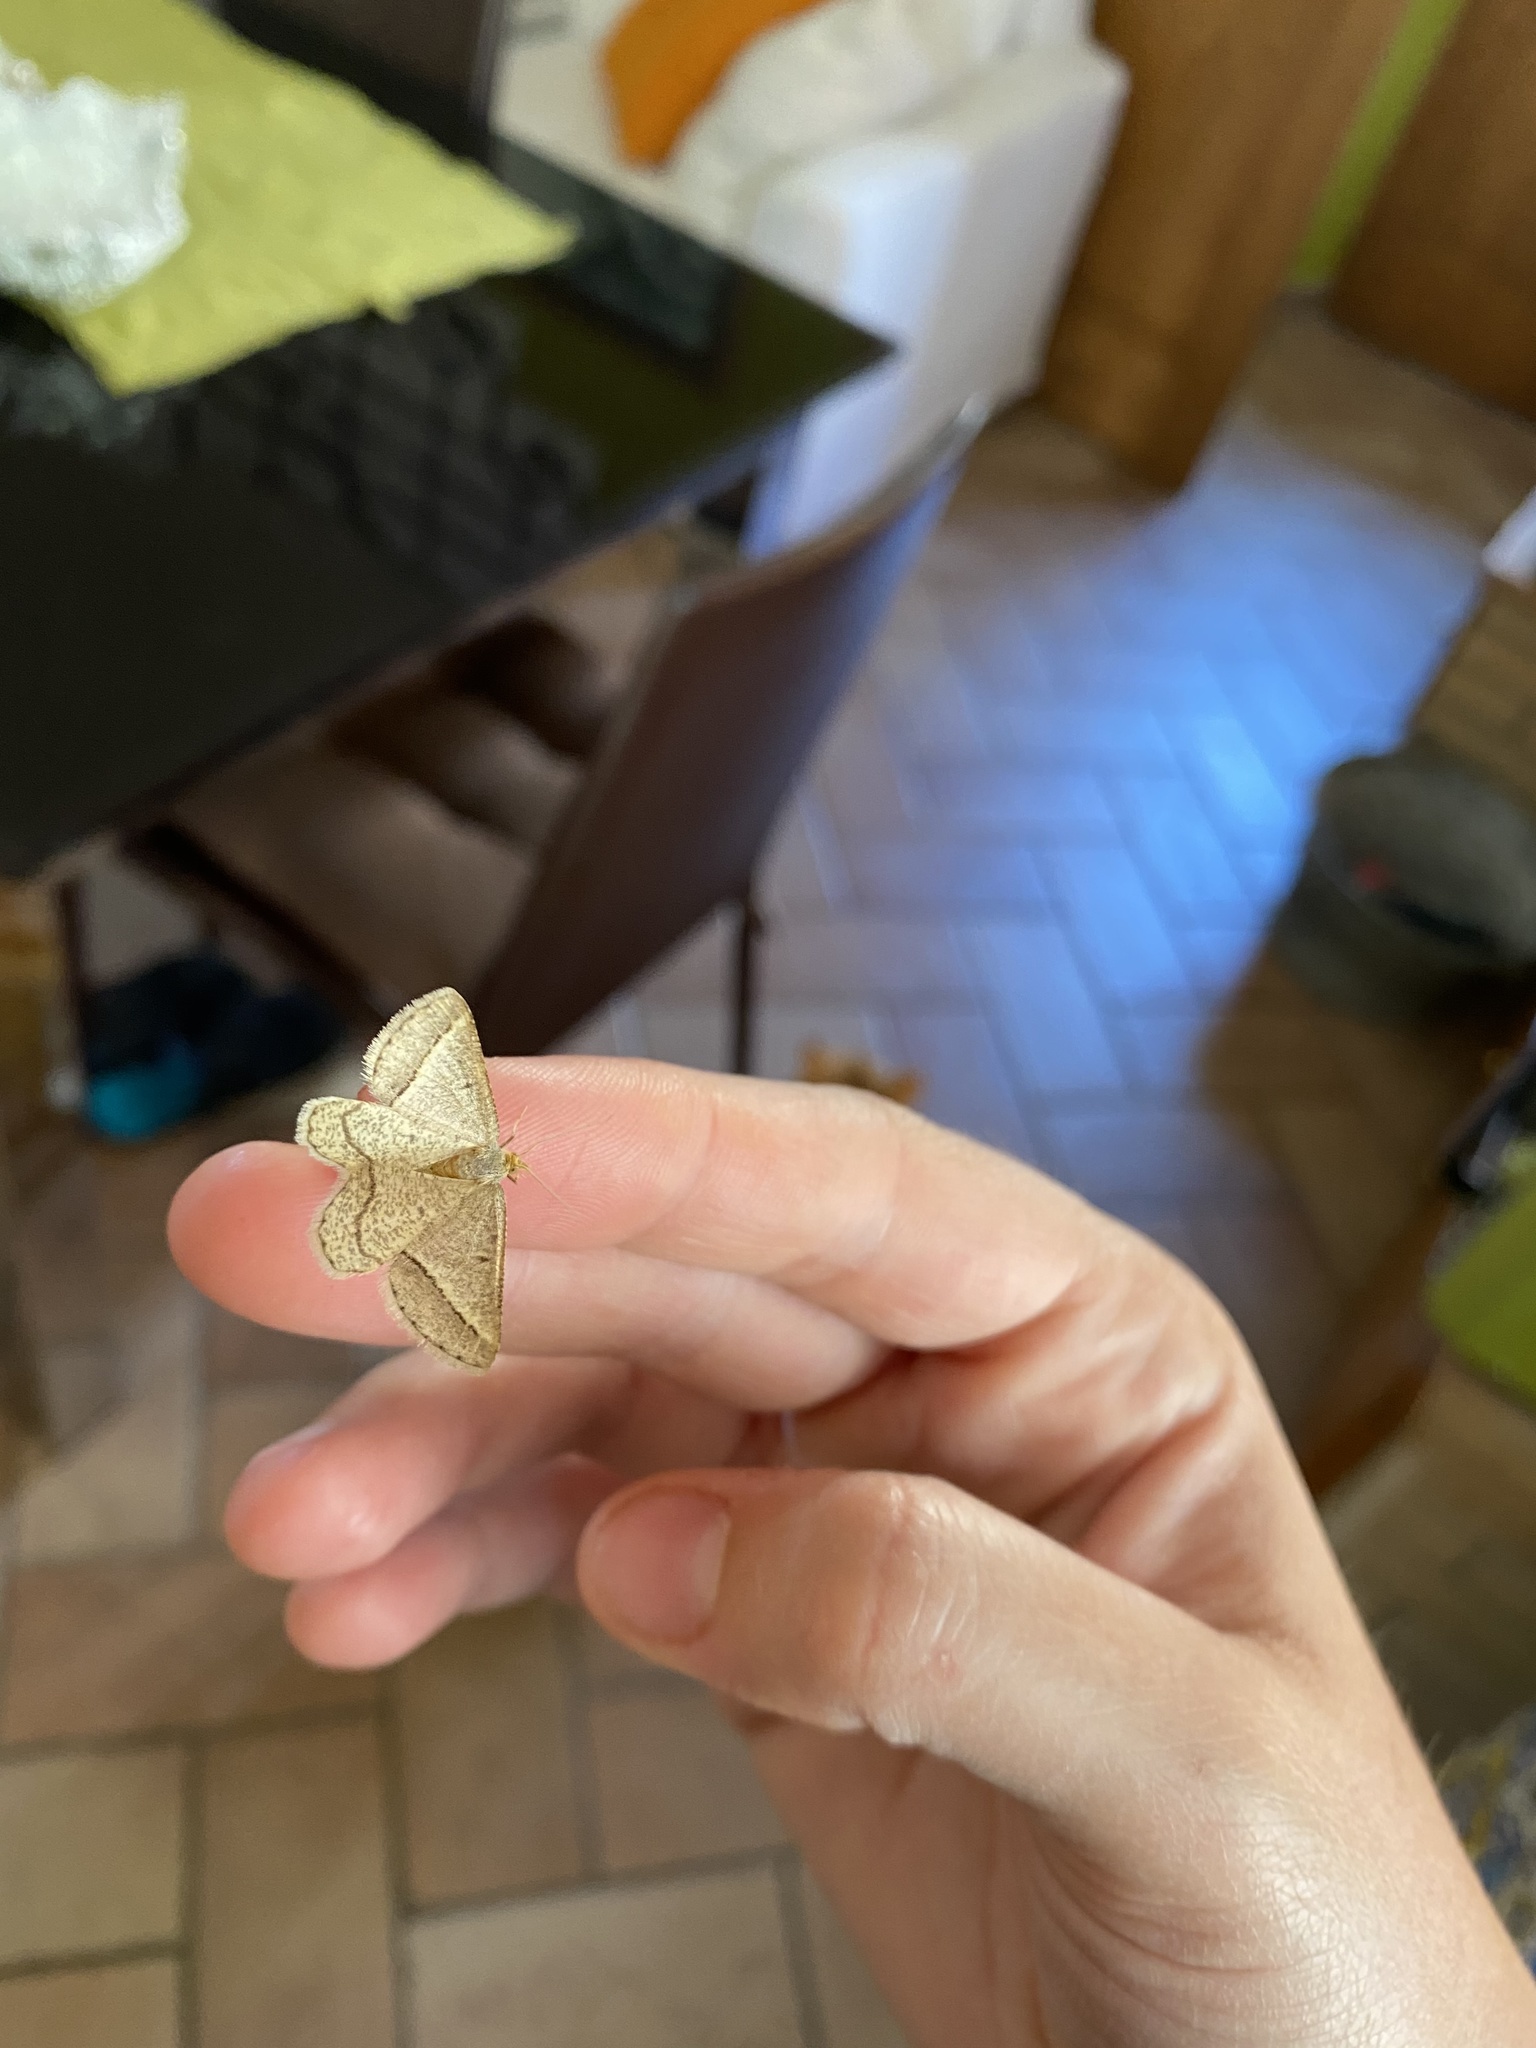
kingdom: Animalia
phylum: Arthropoda
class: Insecta
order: Lepidoptera
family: Geometridae
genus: Tephrina
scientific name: Tephrina arenacearia
